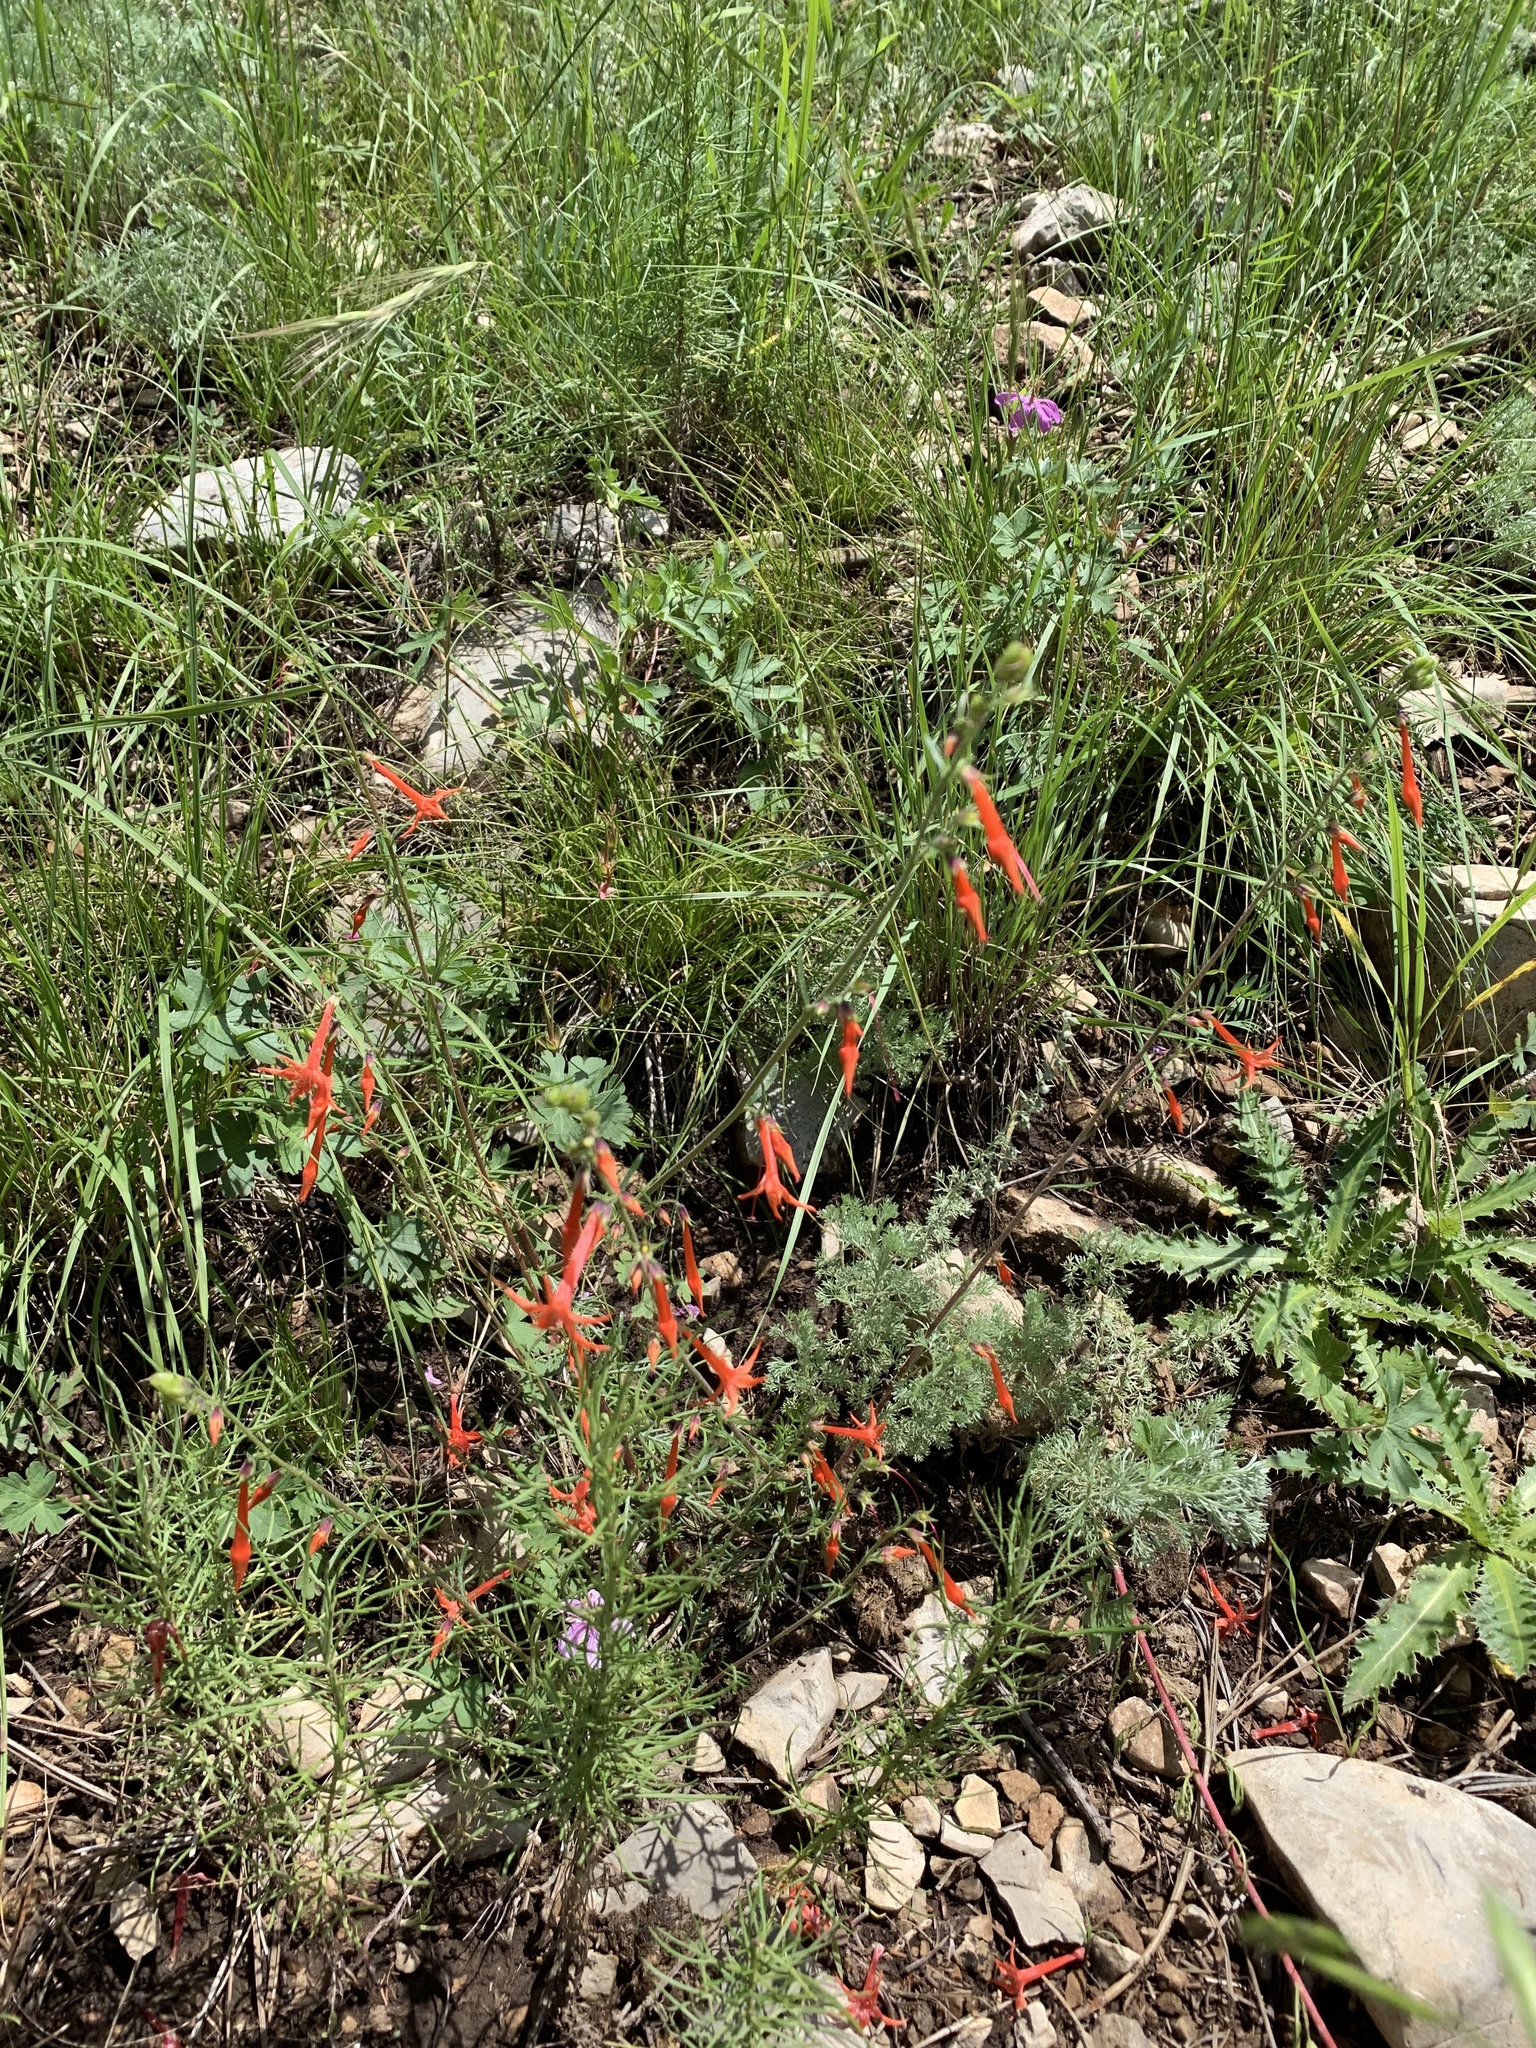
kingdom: Plantae
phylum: Tracheophyta
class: Magnoliopsida
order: Ericales
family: Polemoniaceae
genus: Ipomopsis
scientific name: Ipomopsis aggregata
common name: Scarlet gilia
